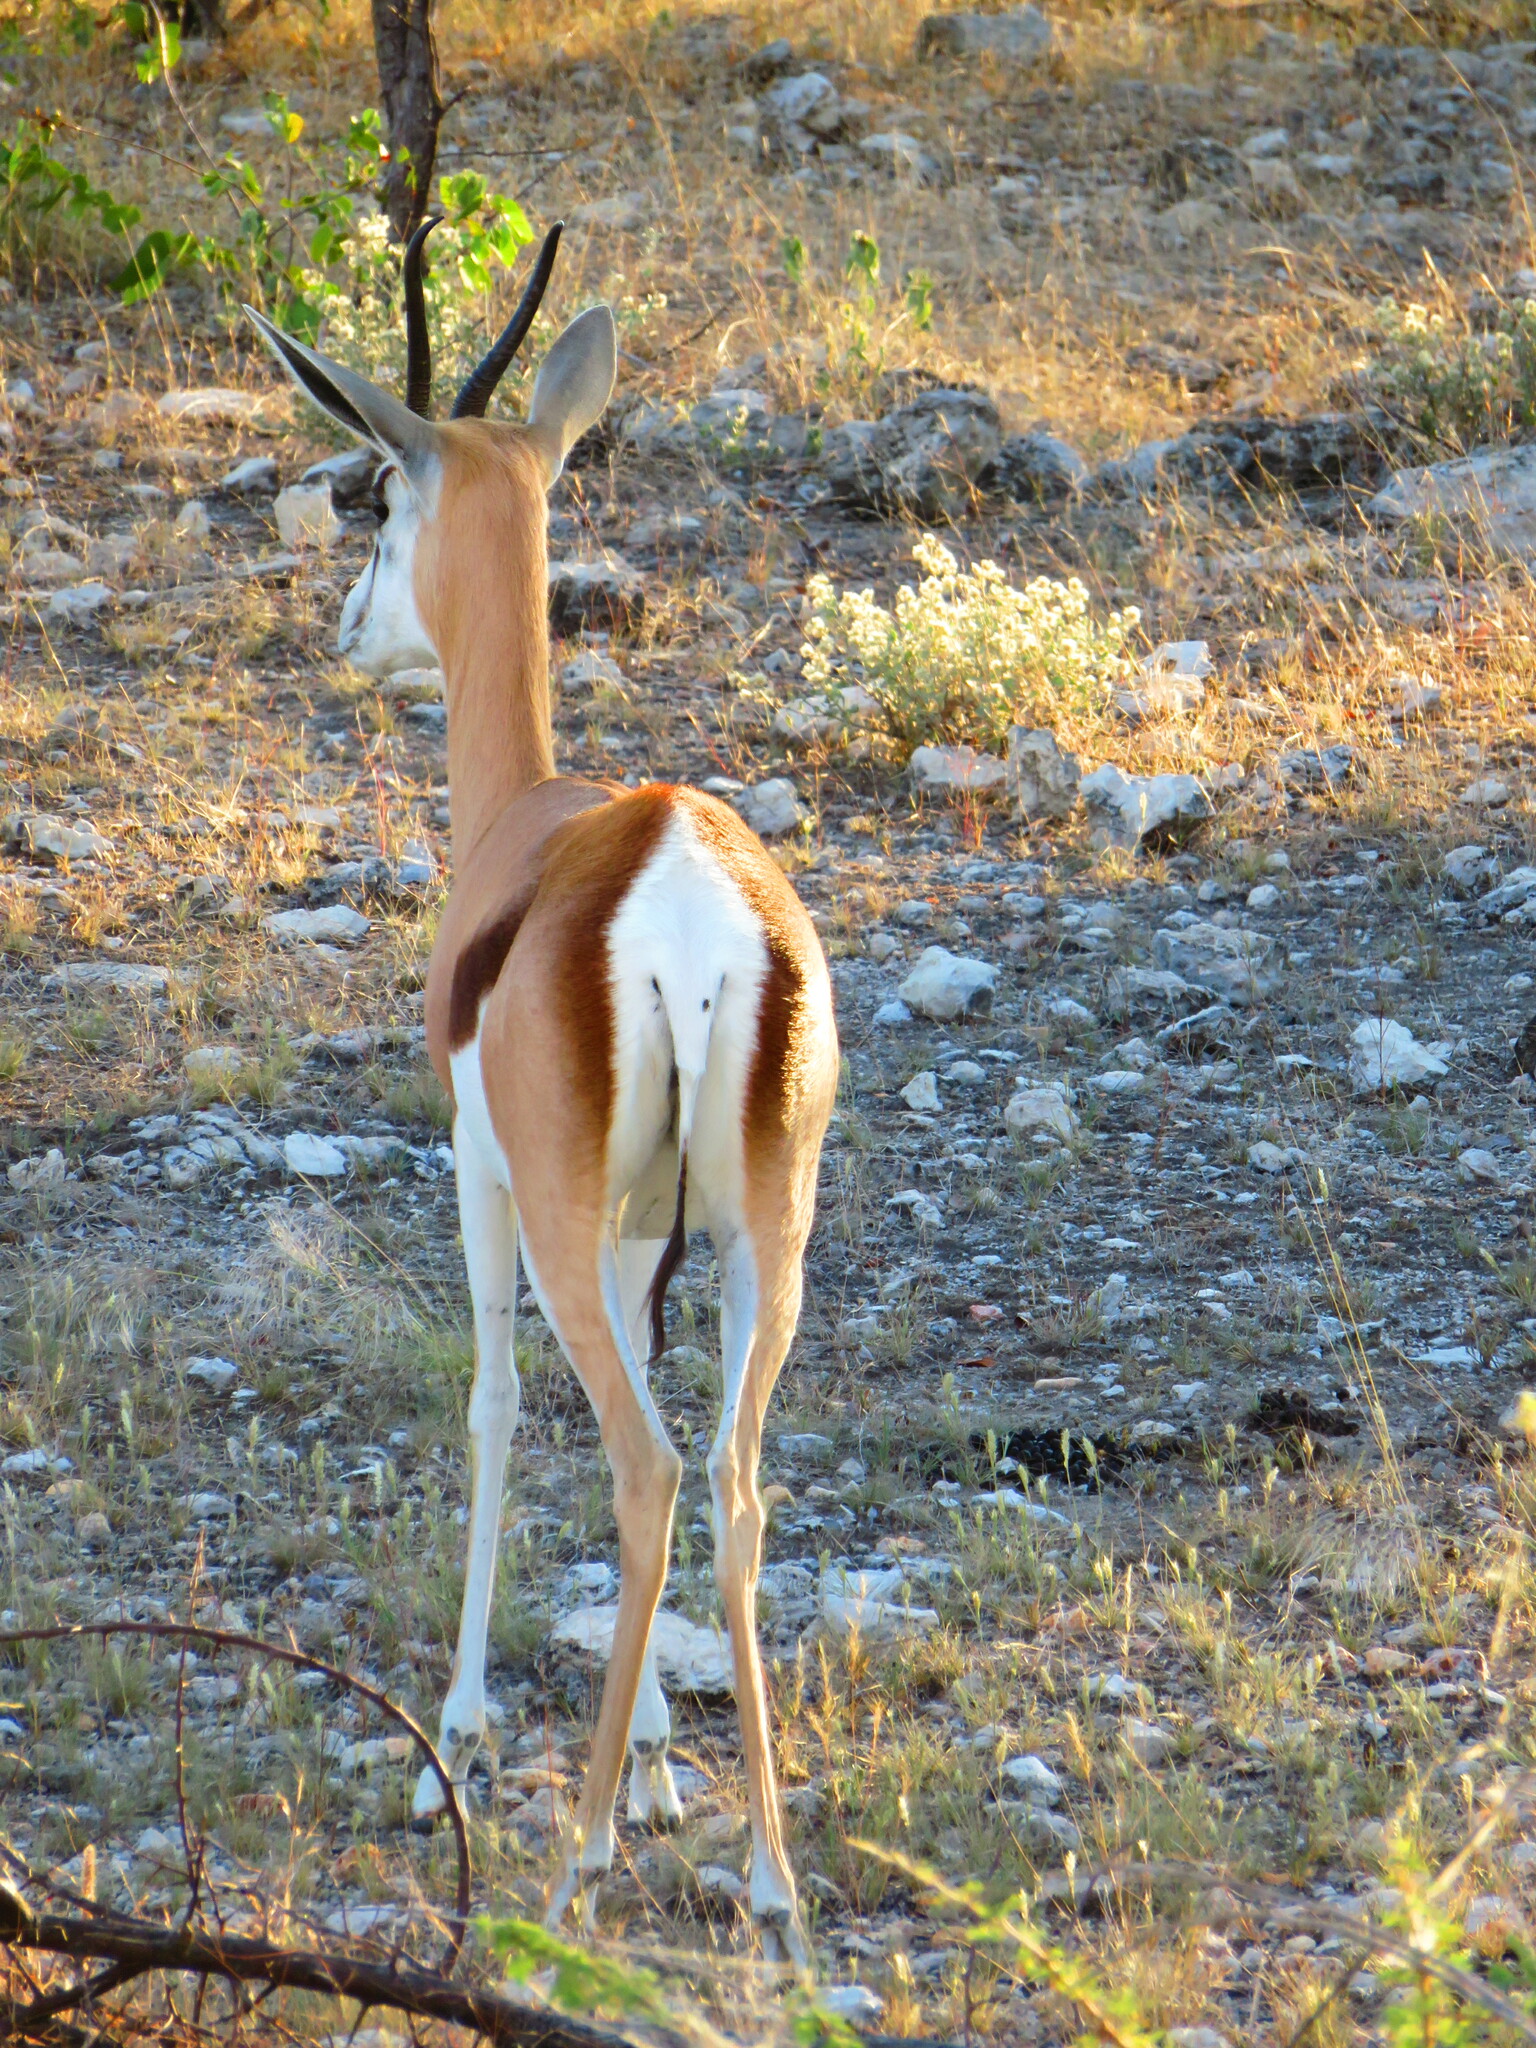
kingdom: Animalia
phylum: Chordata
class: Mammalia
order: Artiodactyla
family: Bovidae
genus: Antidorcas
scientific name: Antidorcas marsupialis
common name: Springbok
